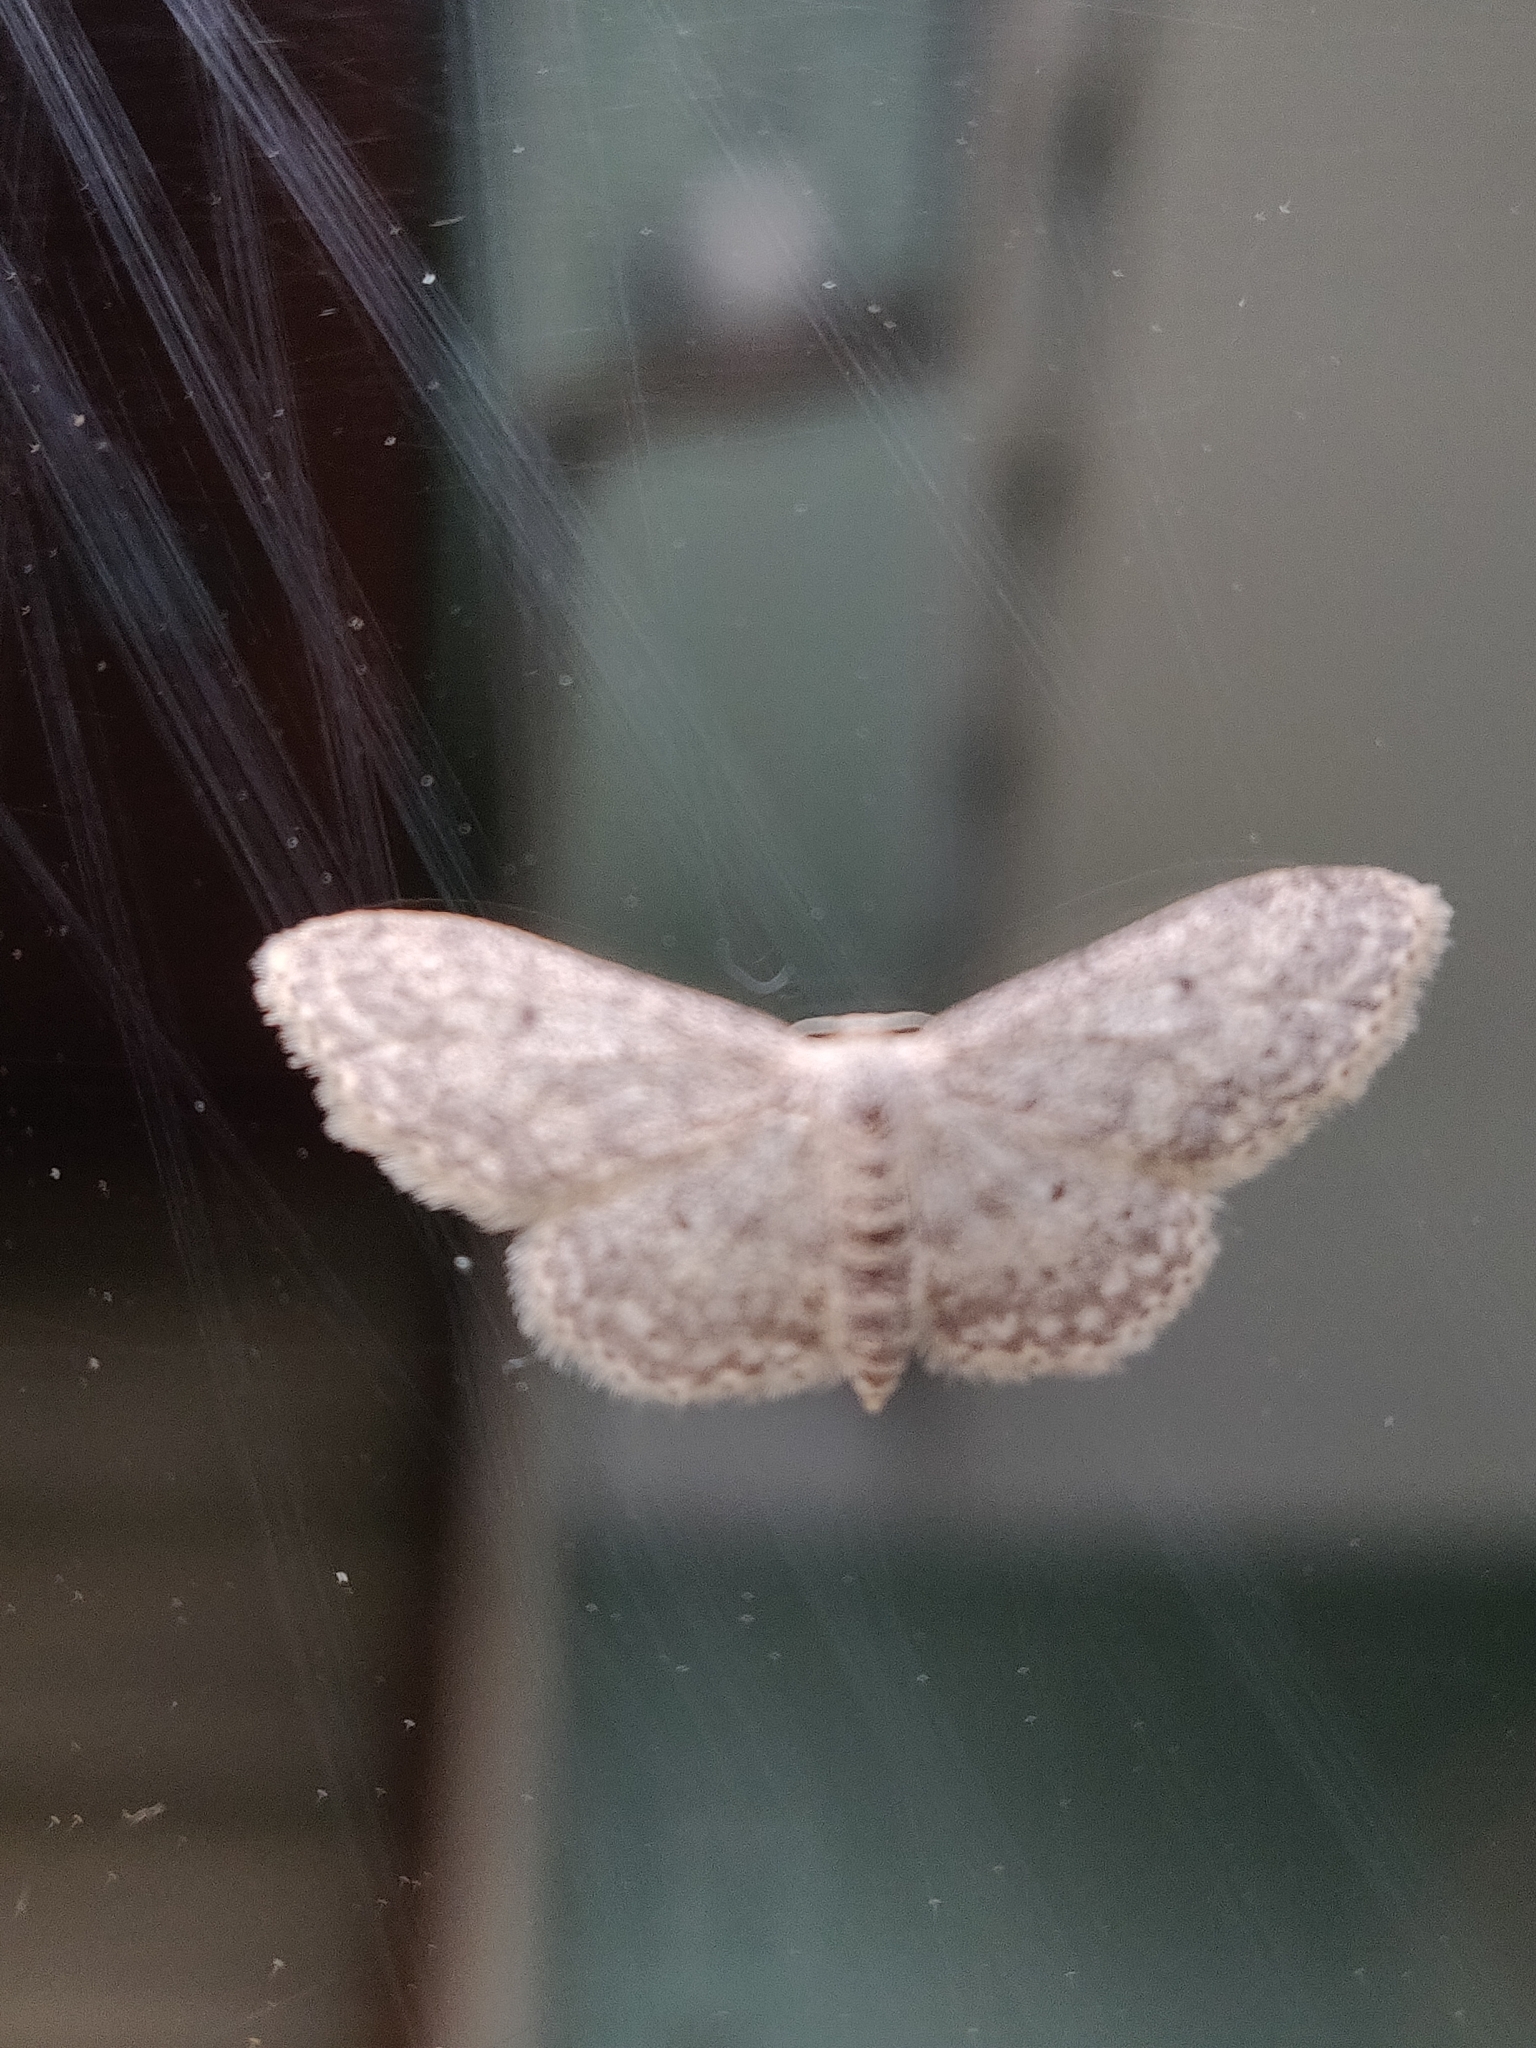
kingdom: Animalia
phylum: Arthropoda
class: Insecta
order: Lepidoptera
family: Geometridae
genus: Idaea
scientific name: Idaea seriata
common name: Small dusty wave
